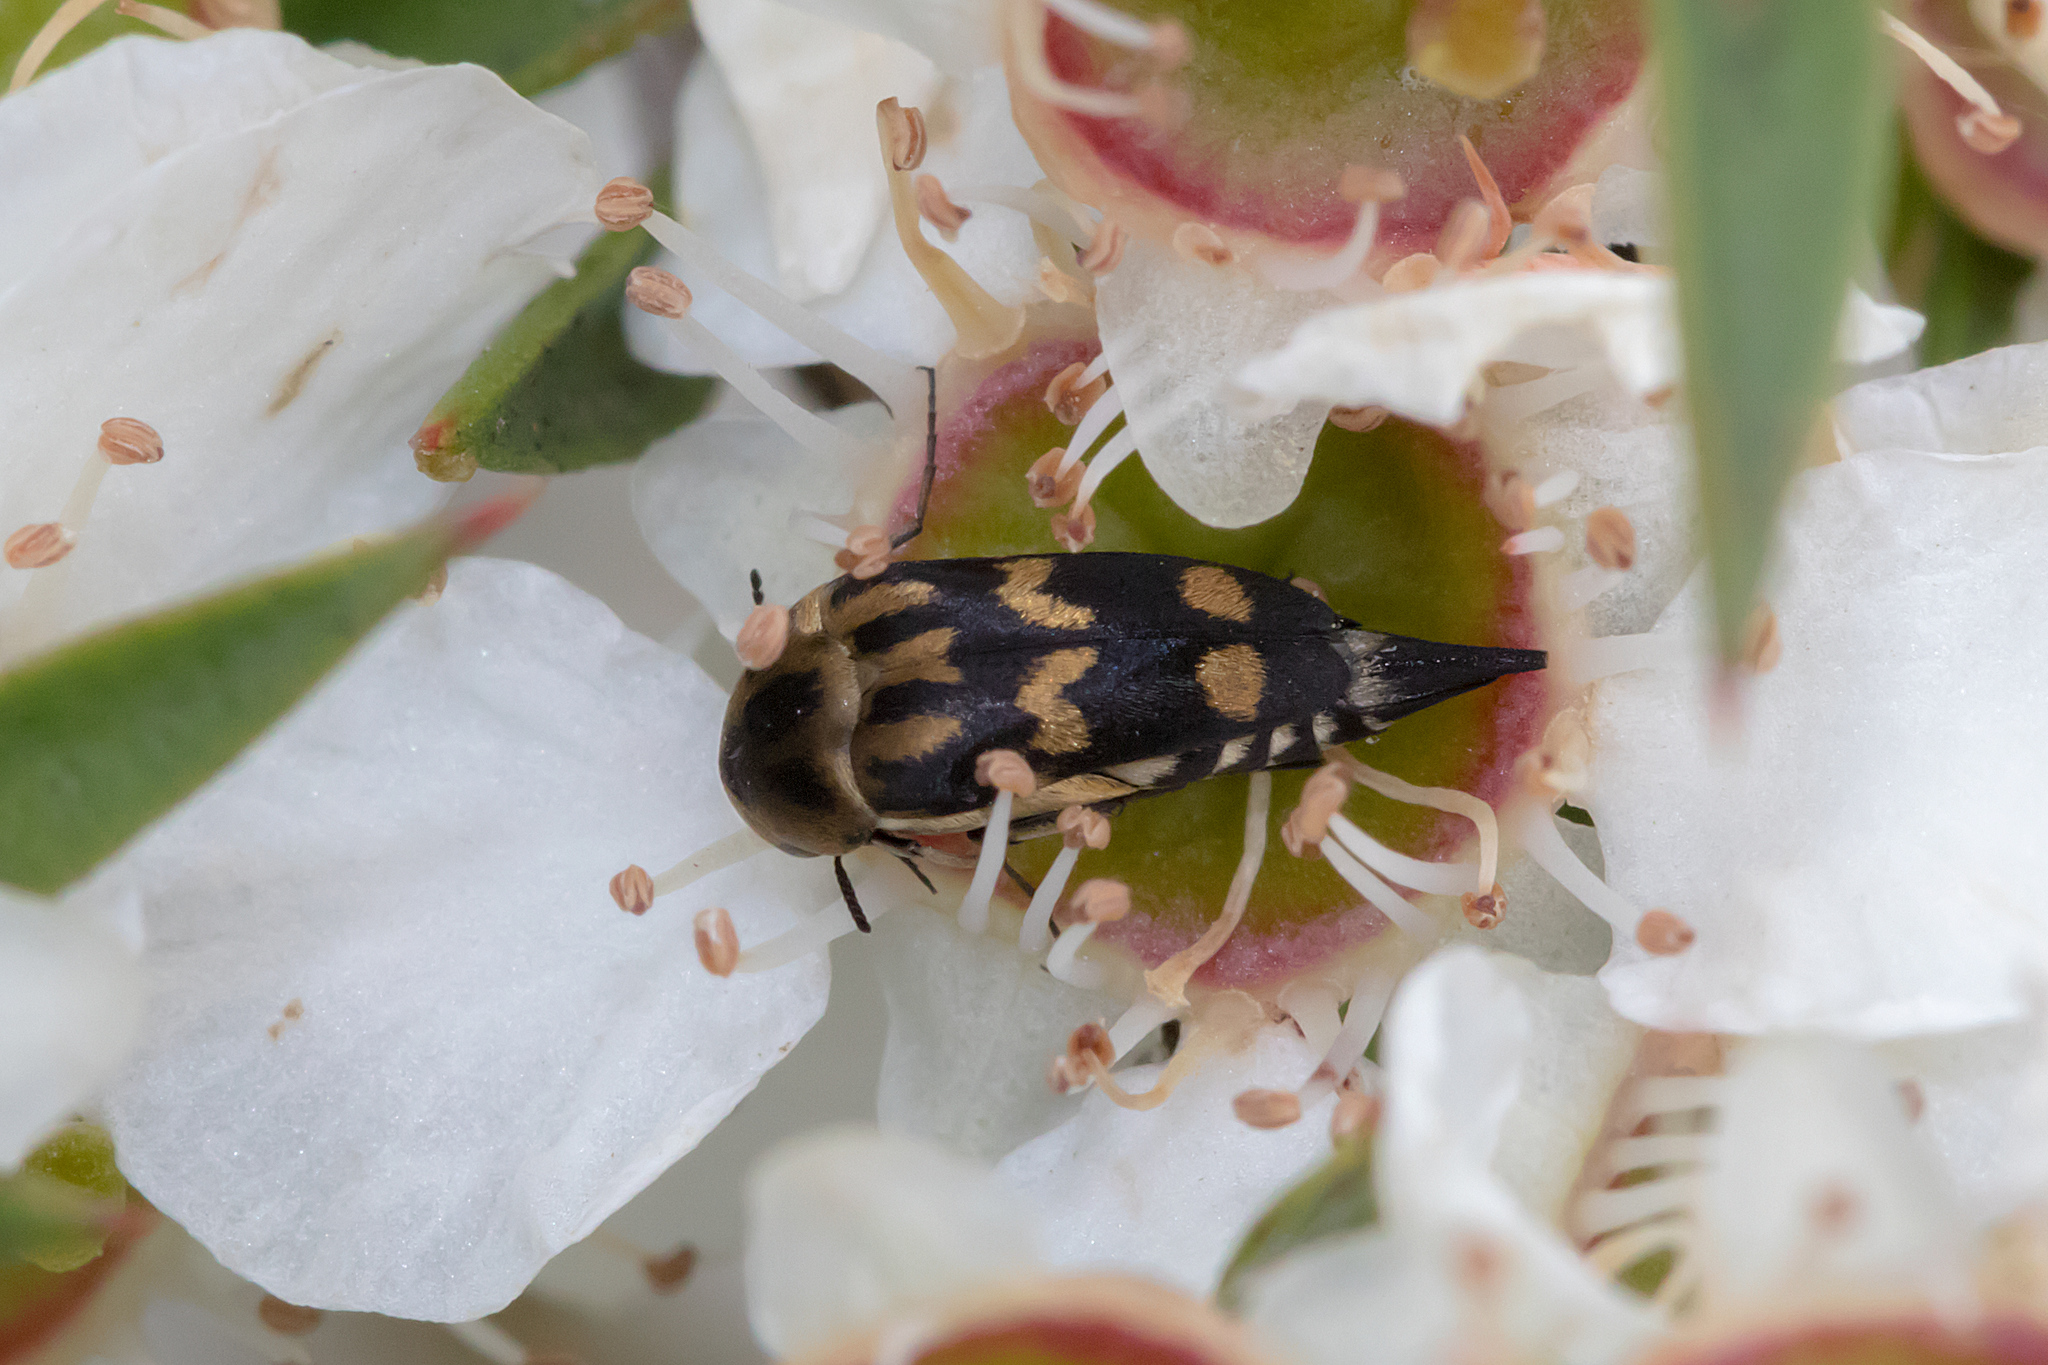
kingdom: Animalia
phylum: Arthropoda
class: Insecta
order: Coleoptera
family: Mordellidae
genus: Mordella
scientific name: Mordella
